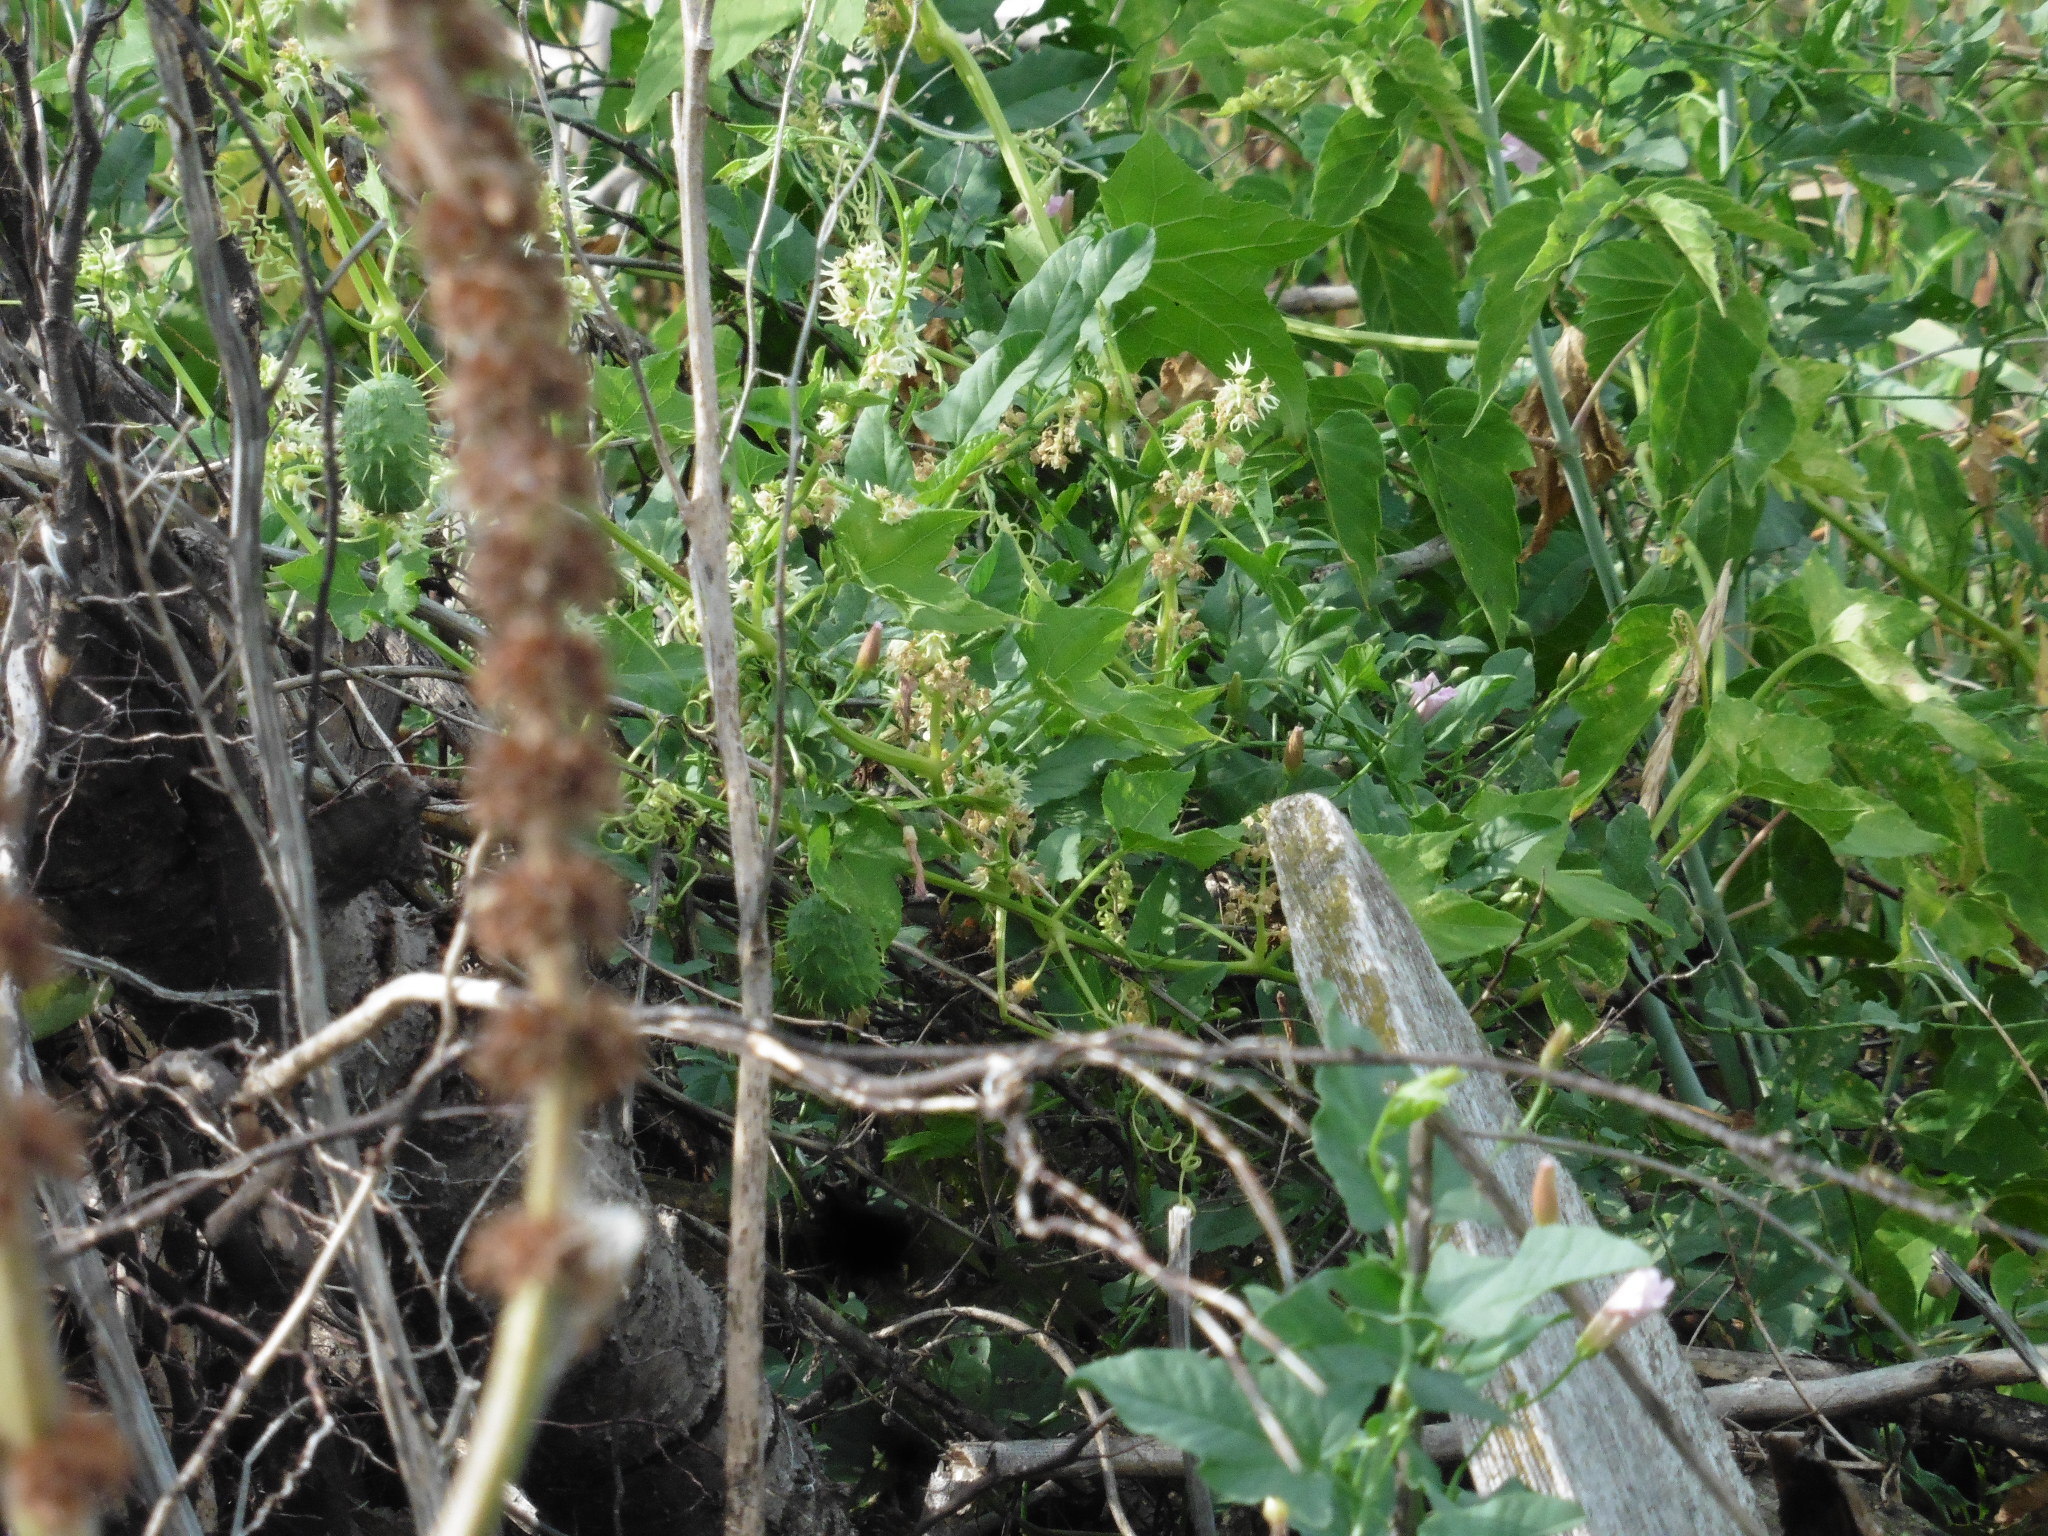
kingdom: Plantae
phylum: Tracheophyta
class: Magnoliopsida
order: Cucurbitales
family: Cucurbitaceae
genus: Echinocystis
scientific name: Echinocystis lobata
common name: Wild cucumber
